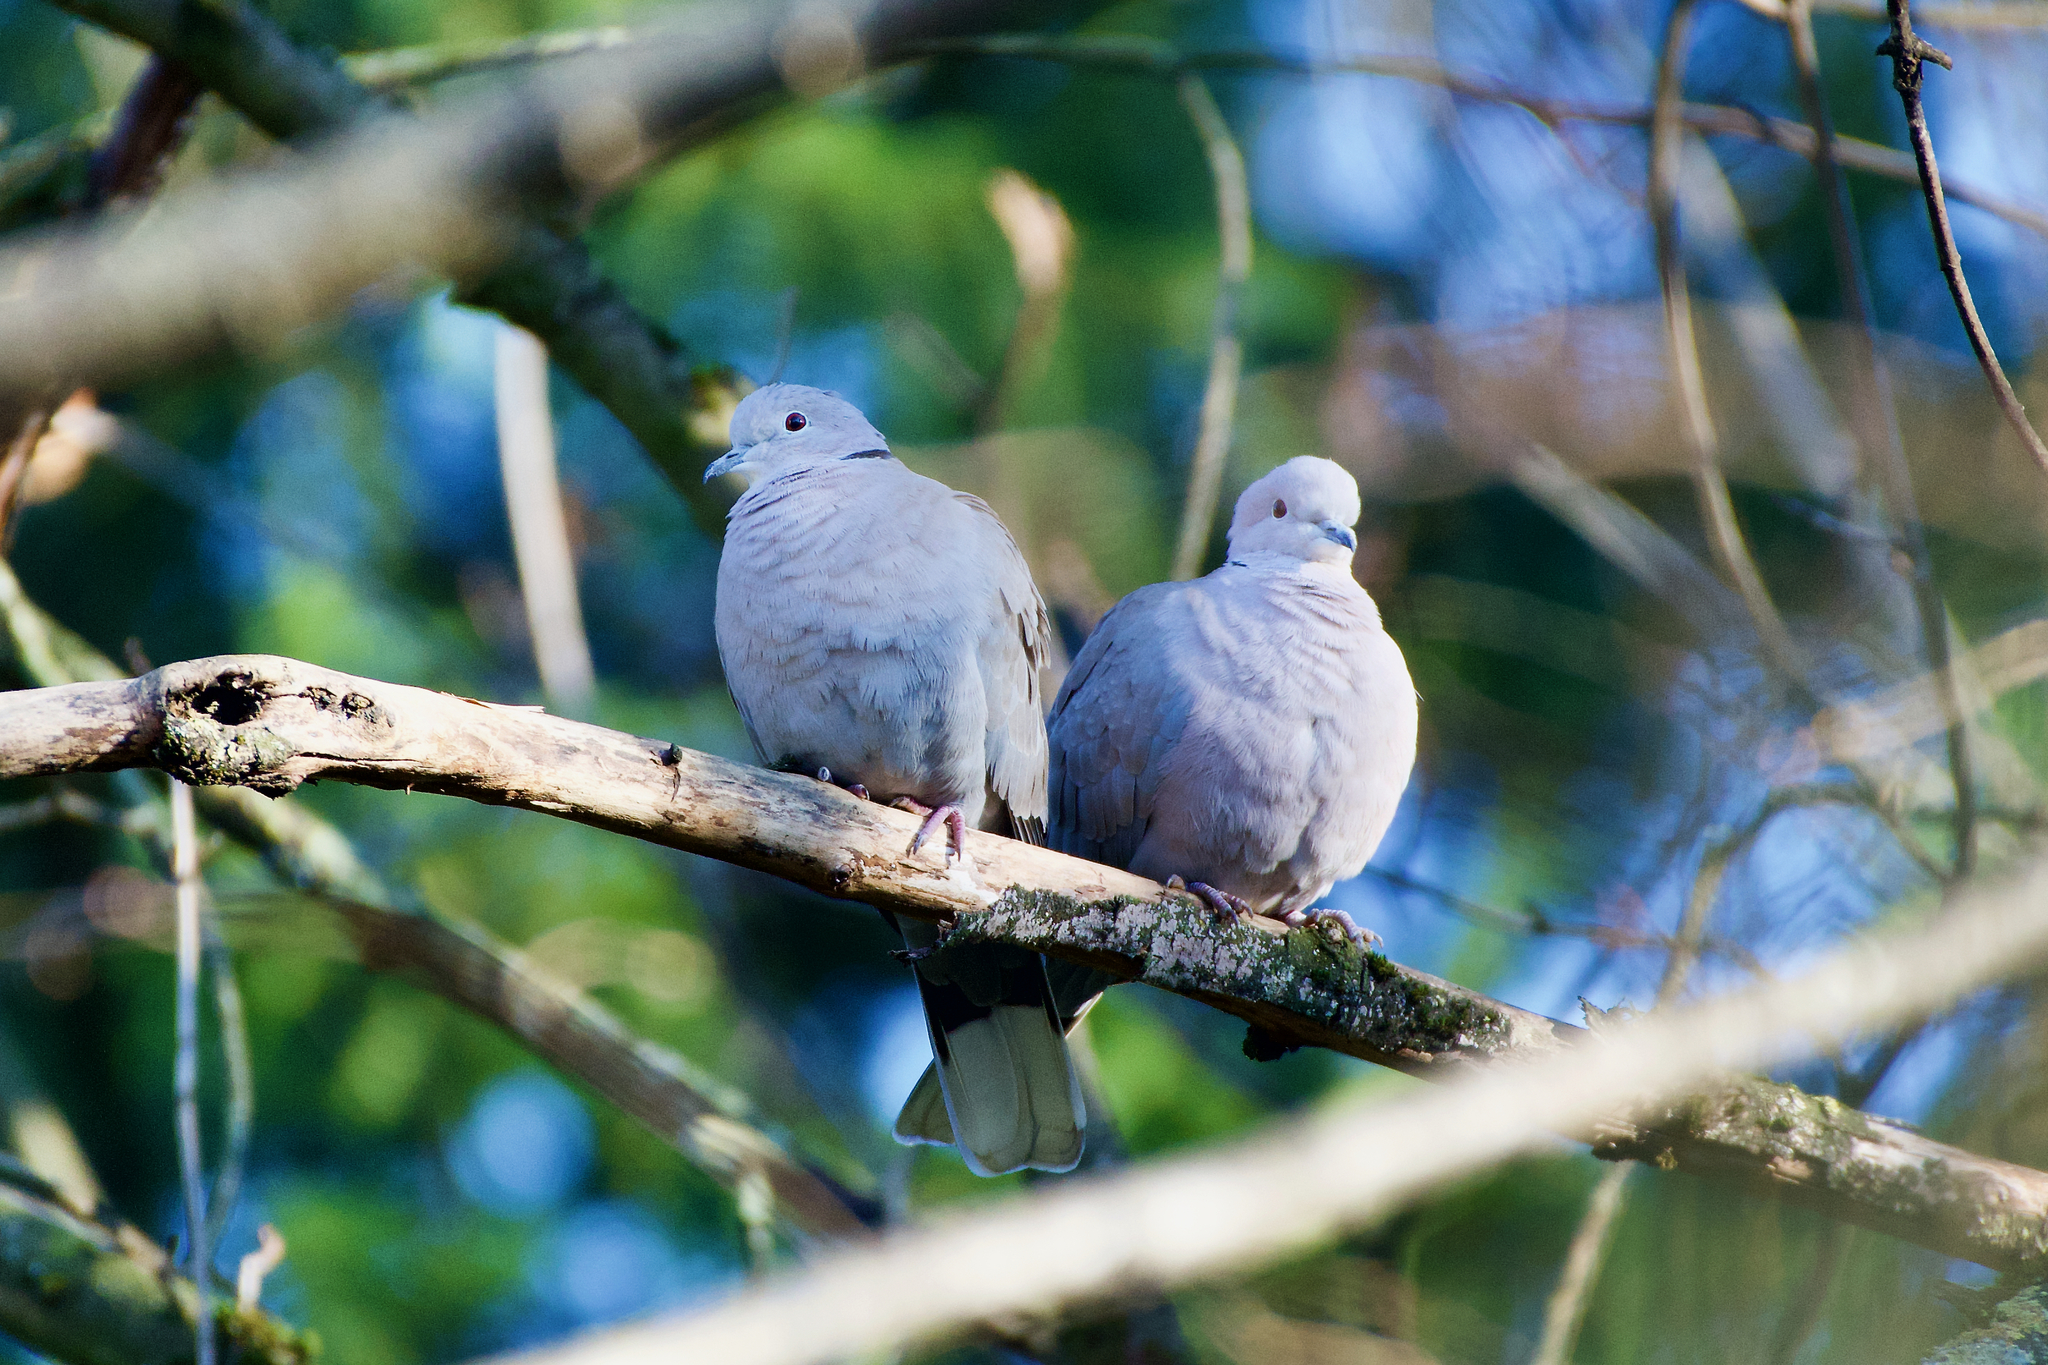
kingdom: Animalia
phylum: Chordata
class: Aves
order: Columbiformes
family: Columbidae
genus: Streptopelia
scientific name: Streptopelia decaocto
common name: Eurasian collared dove
